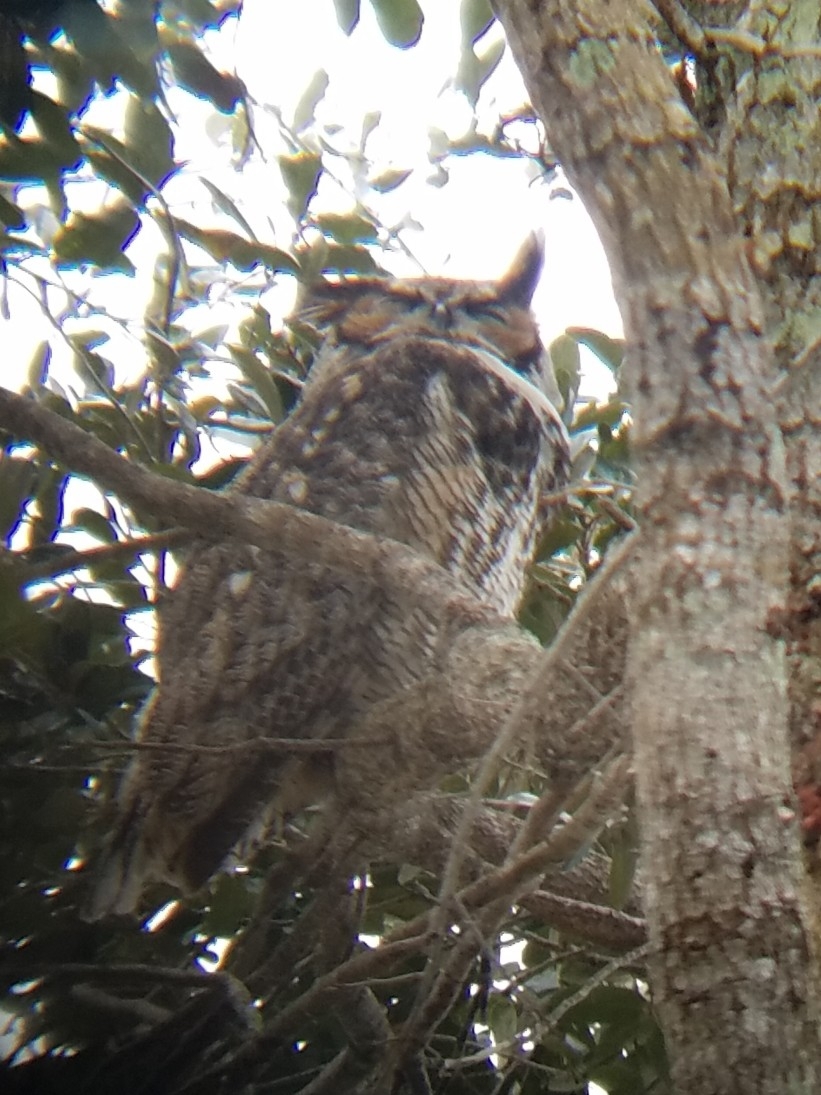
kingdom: Animalia
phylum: Chordata
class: Aves
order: Strigiformes
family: Strigidae
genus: Bubo
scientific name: Bubo virginianus
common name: Great horned owl
